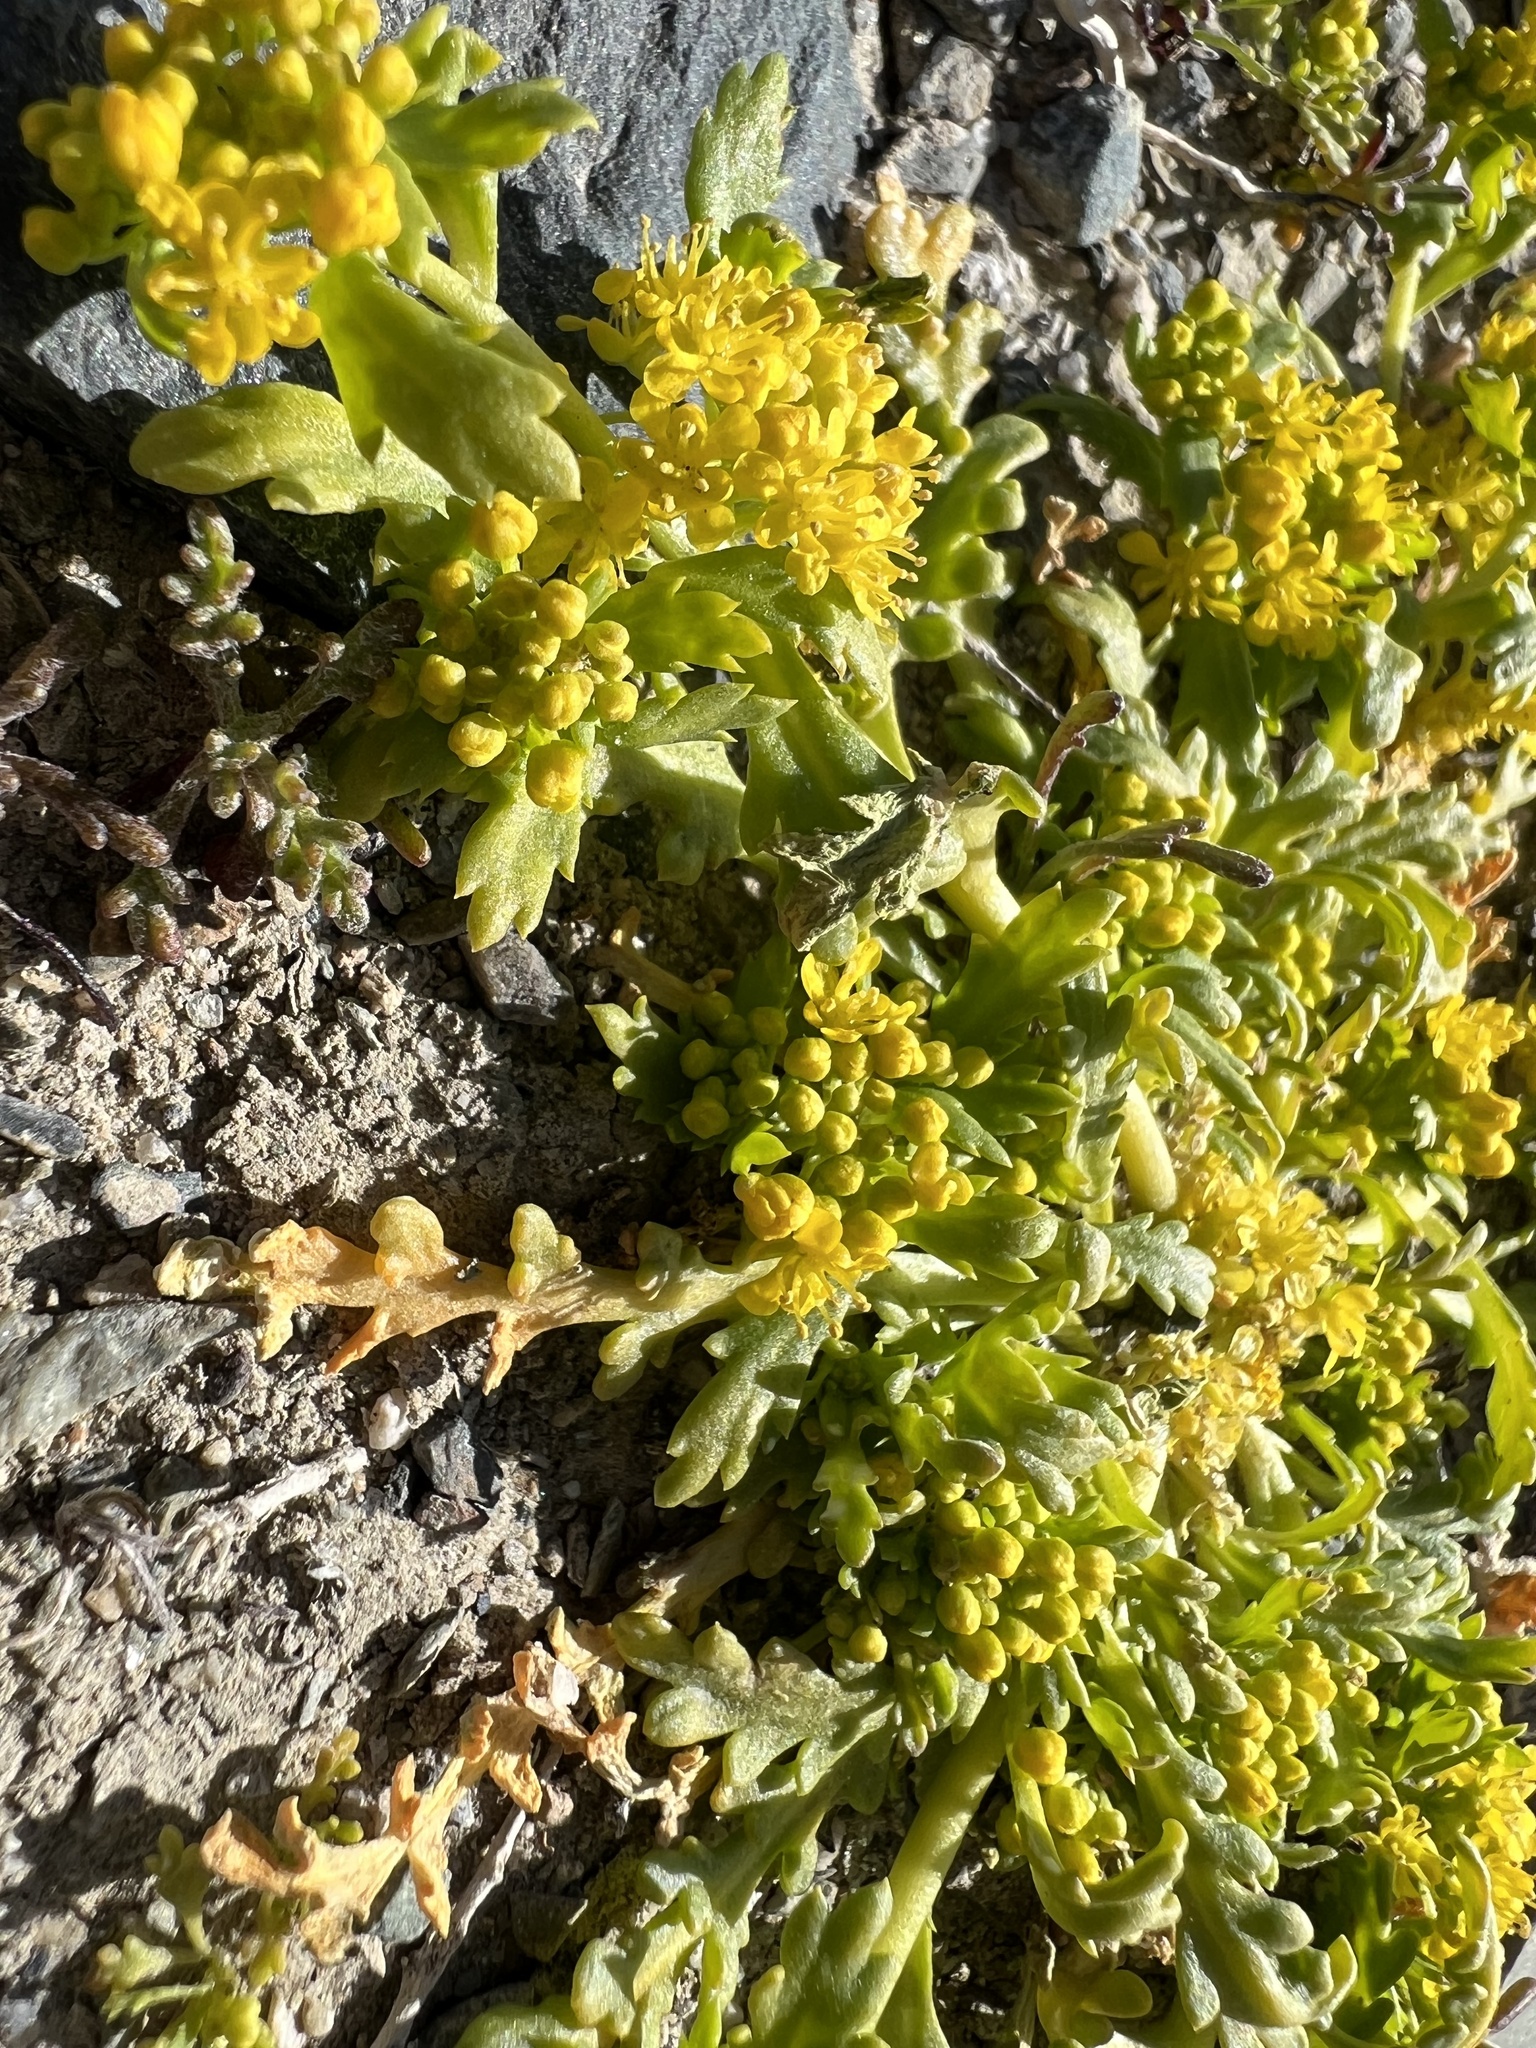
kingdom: Plantae
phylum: Tracheophyta
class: Magnoliopsida
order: Brassicales
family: Brassicaceae
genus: Lepidium
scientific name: Lepidium flavum
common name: Yellow pepperwort
